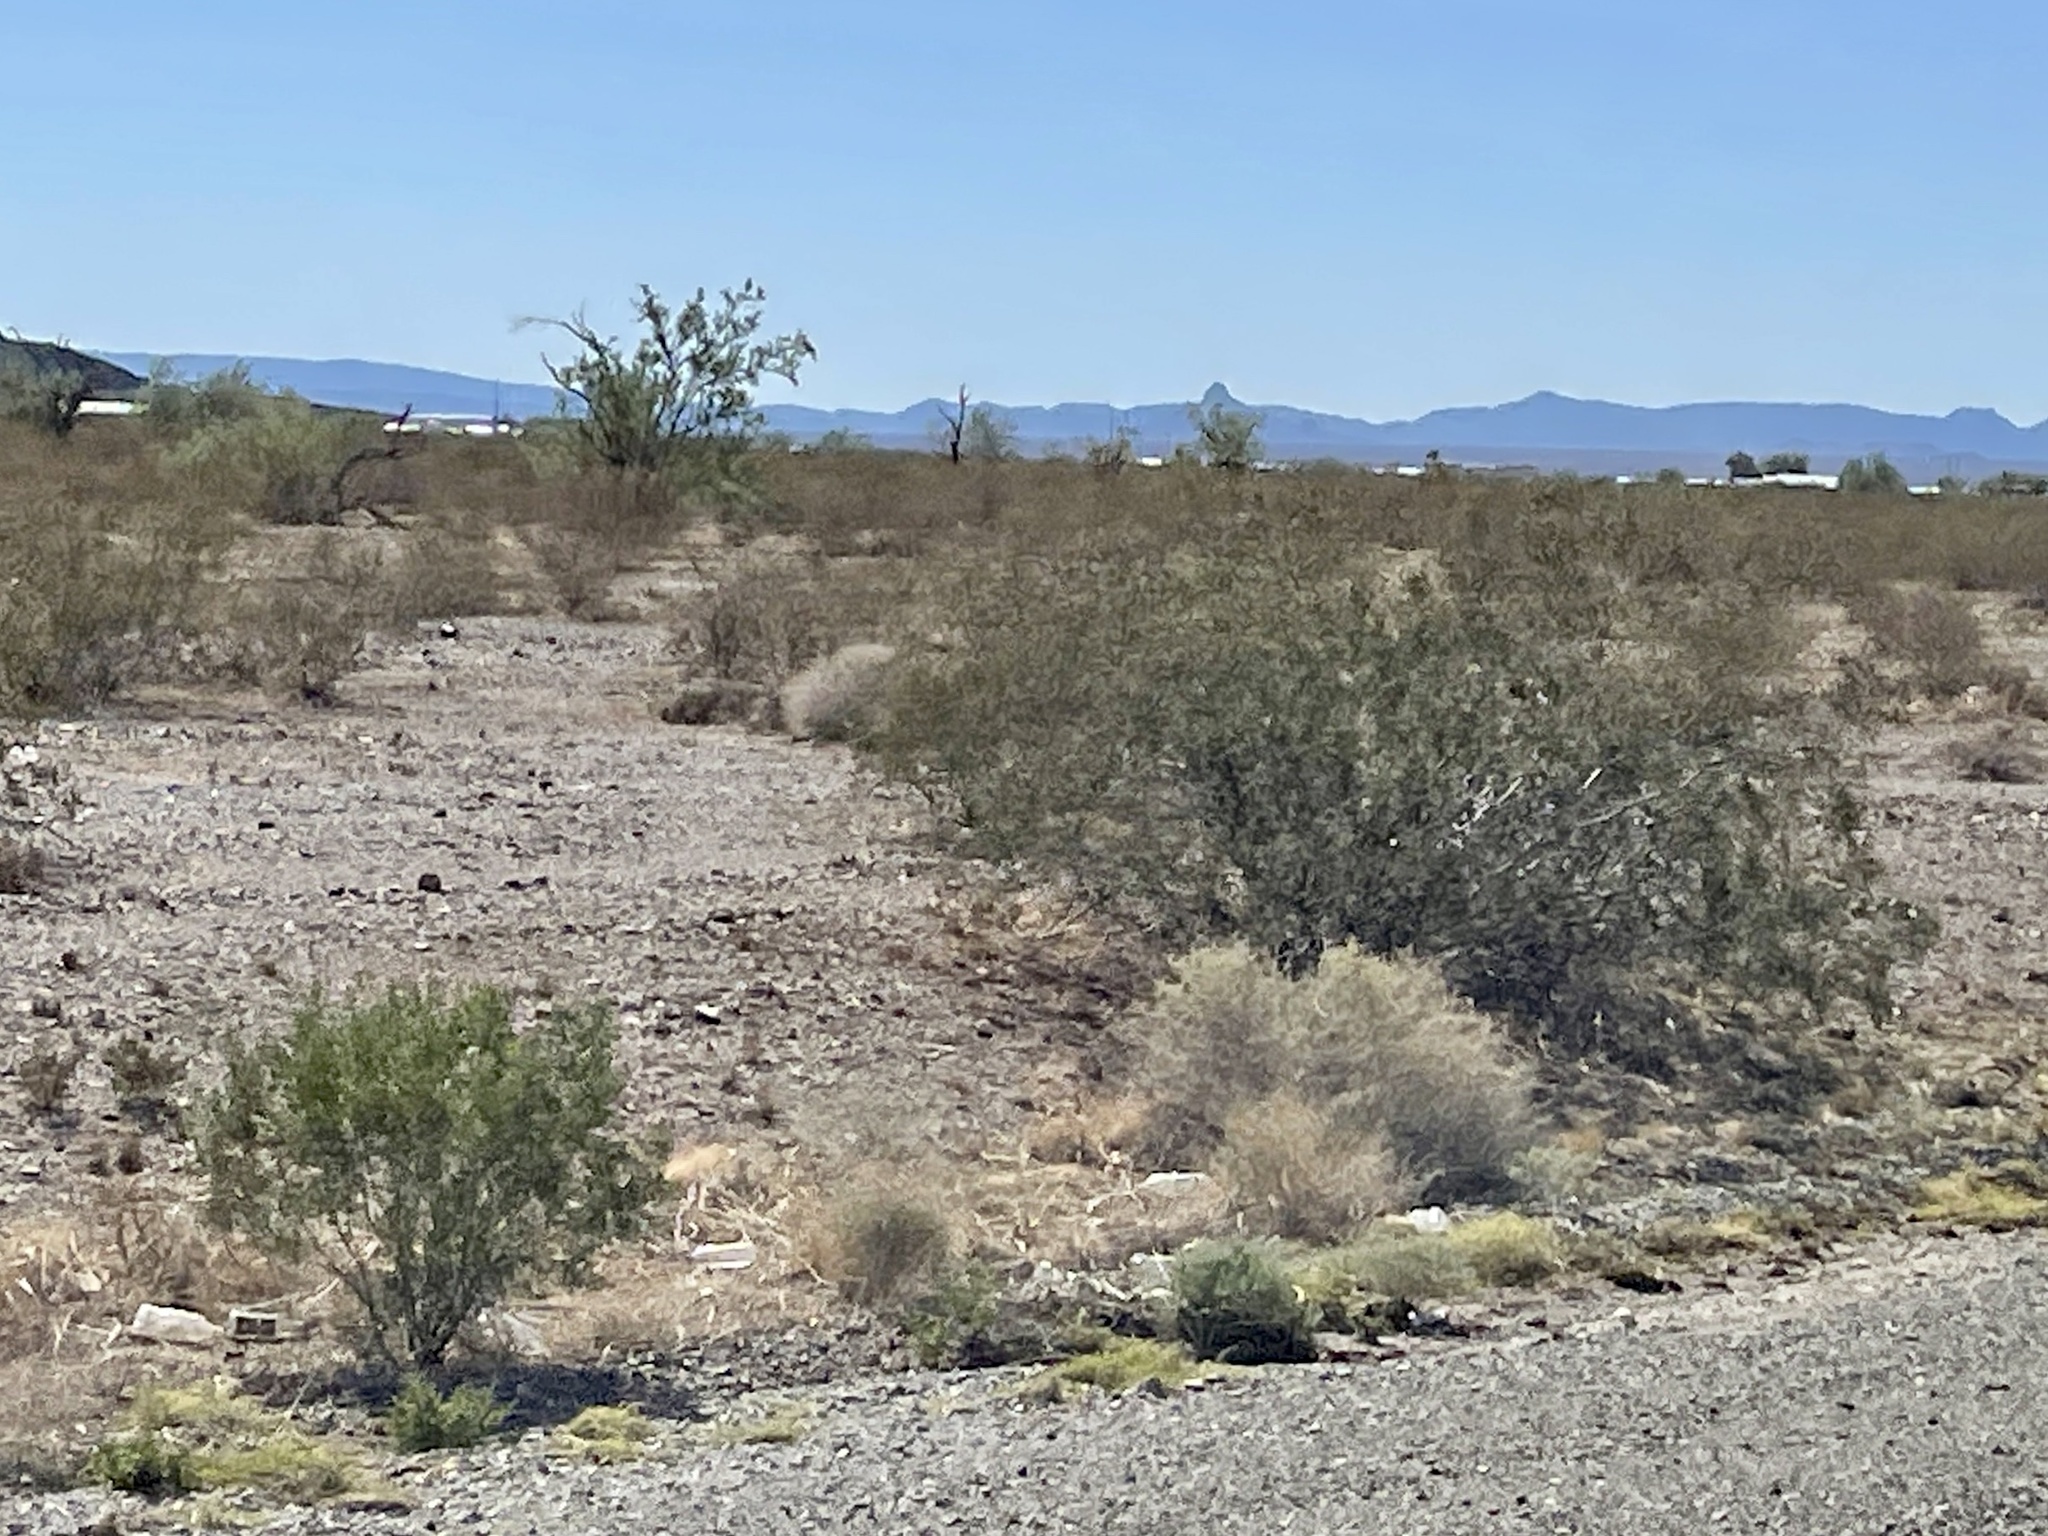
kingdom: Plantae
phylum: Tracheophyta
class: Magnoliopsida
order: Zygophyllales
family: Zygophyllaceae
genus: Larrea
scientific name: Larrea tridentata
